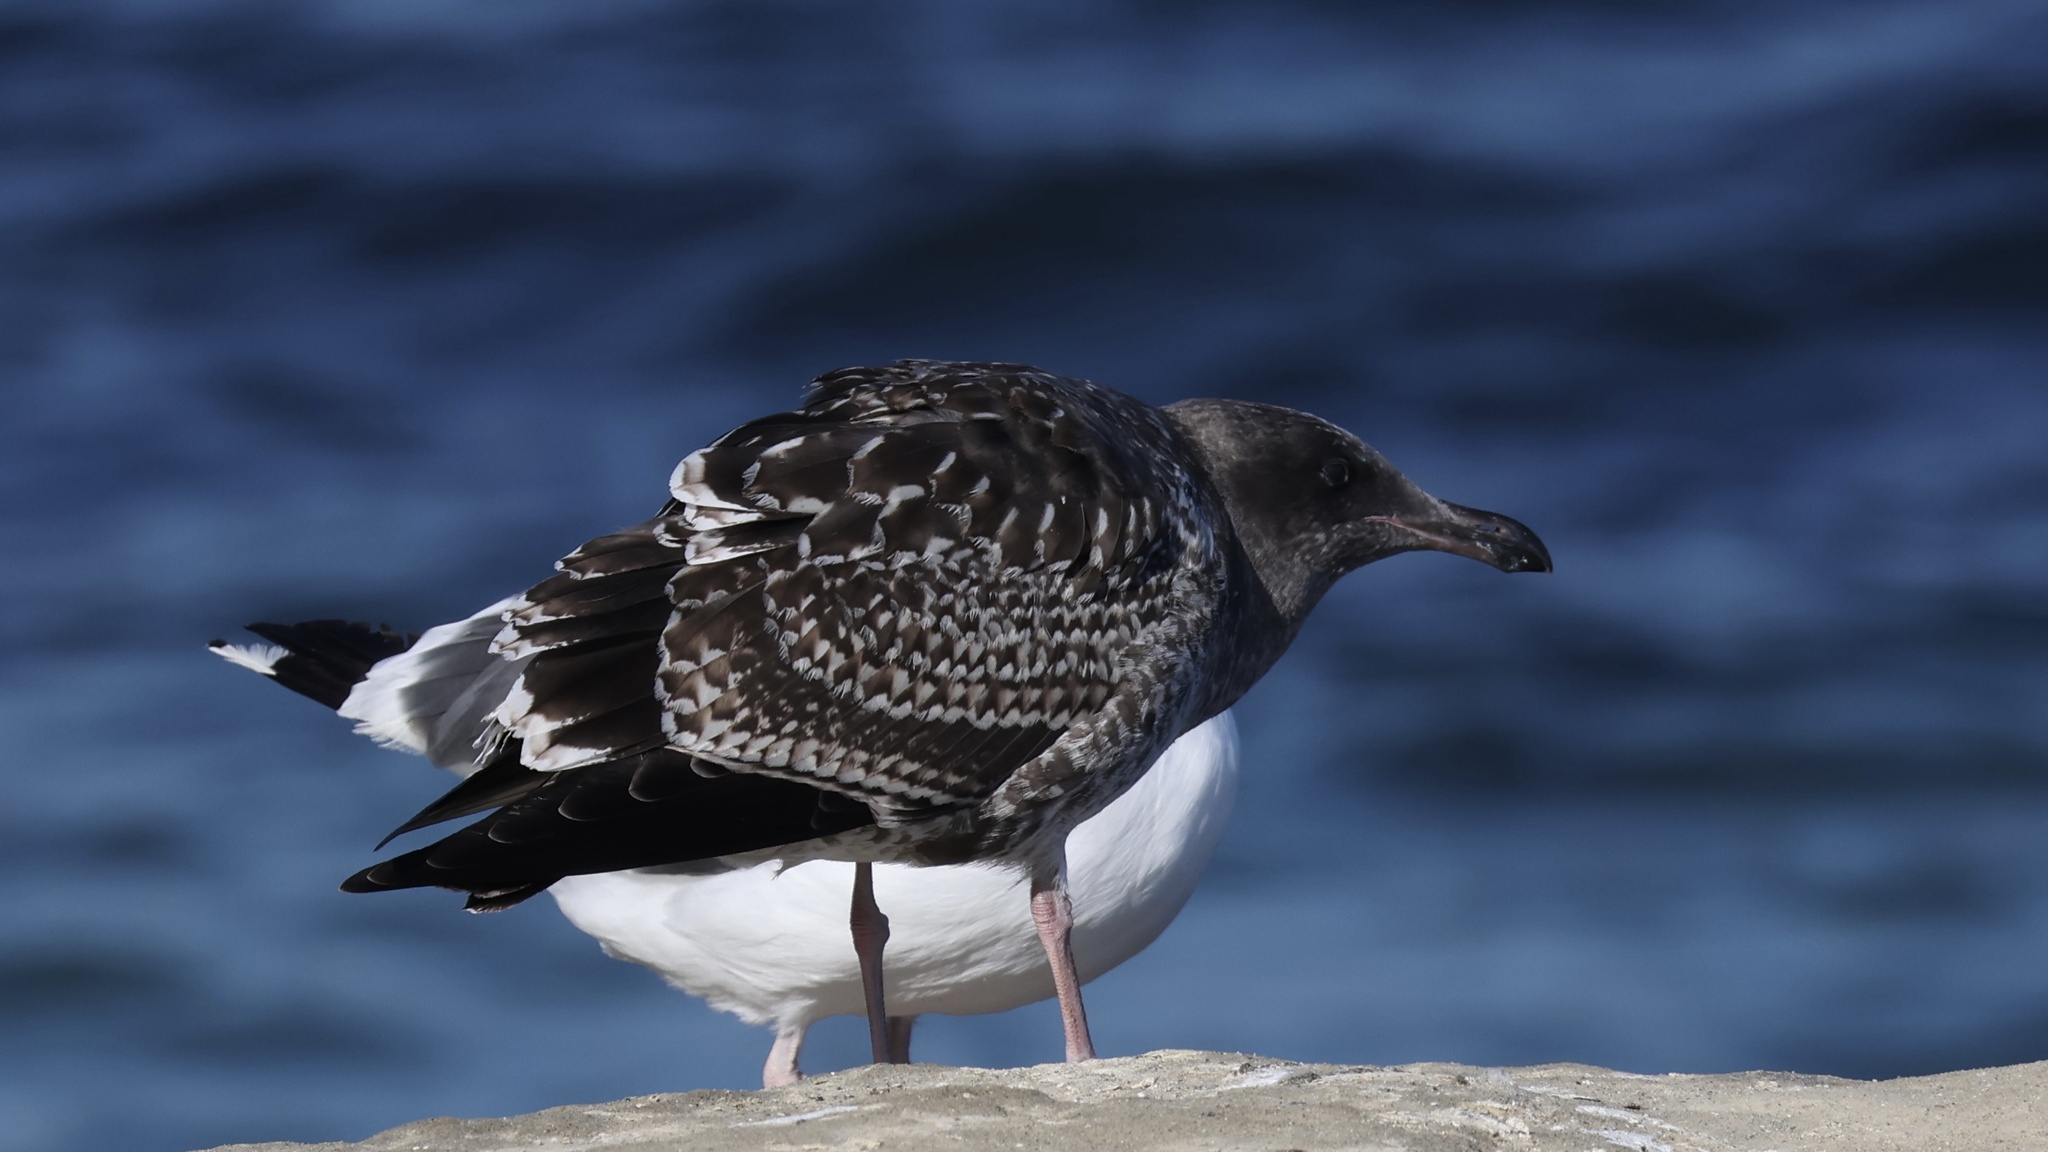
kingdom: Animalia
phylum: Chordata
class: Aves
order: Charadriiformes
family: Laridae
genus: Larus
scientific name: Larus occidentalis
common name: Western gull
